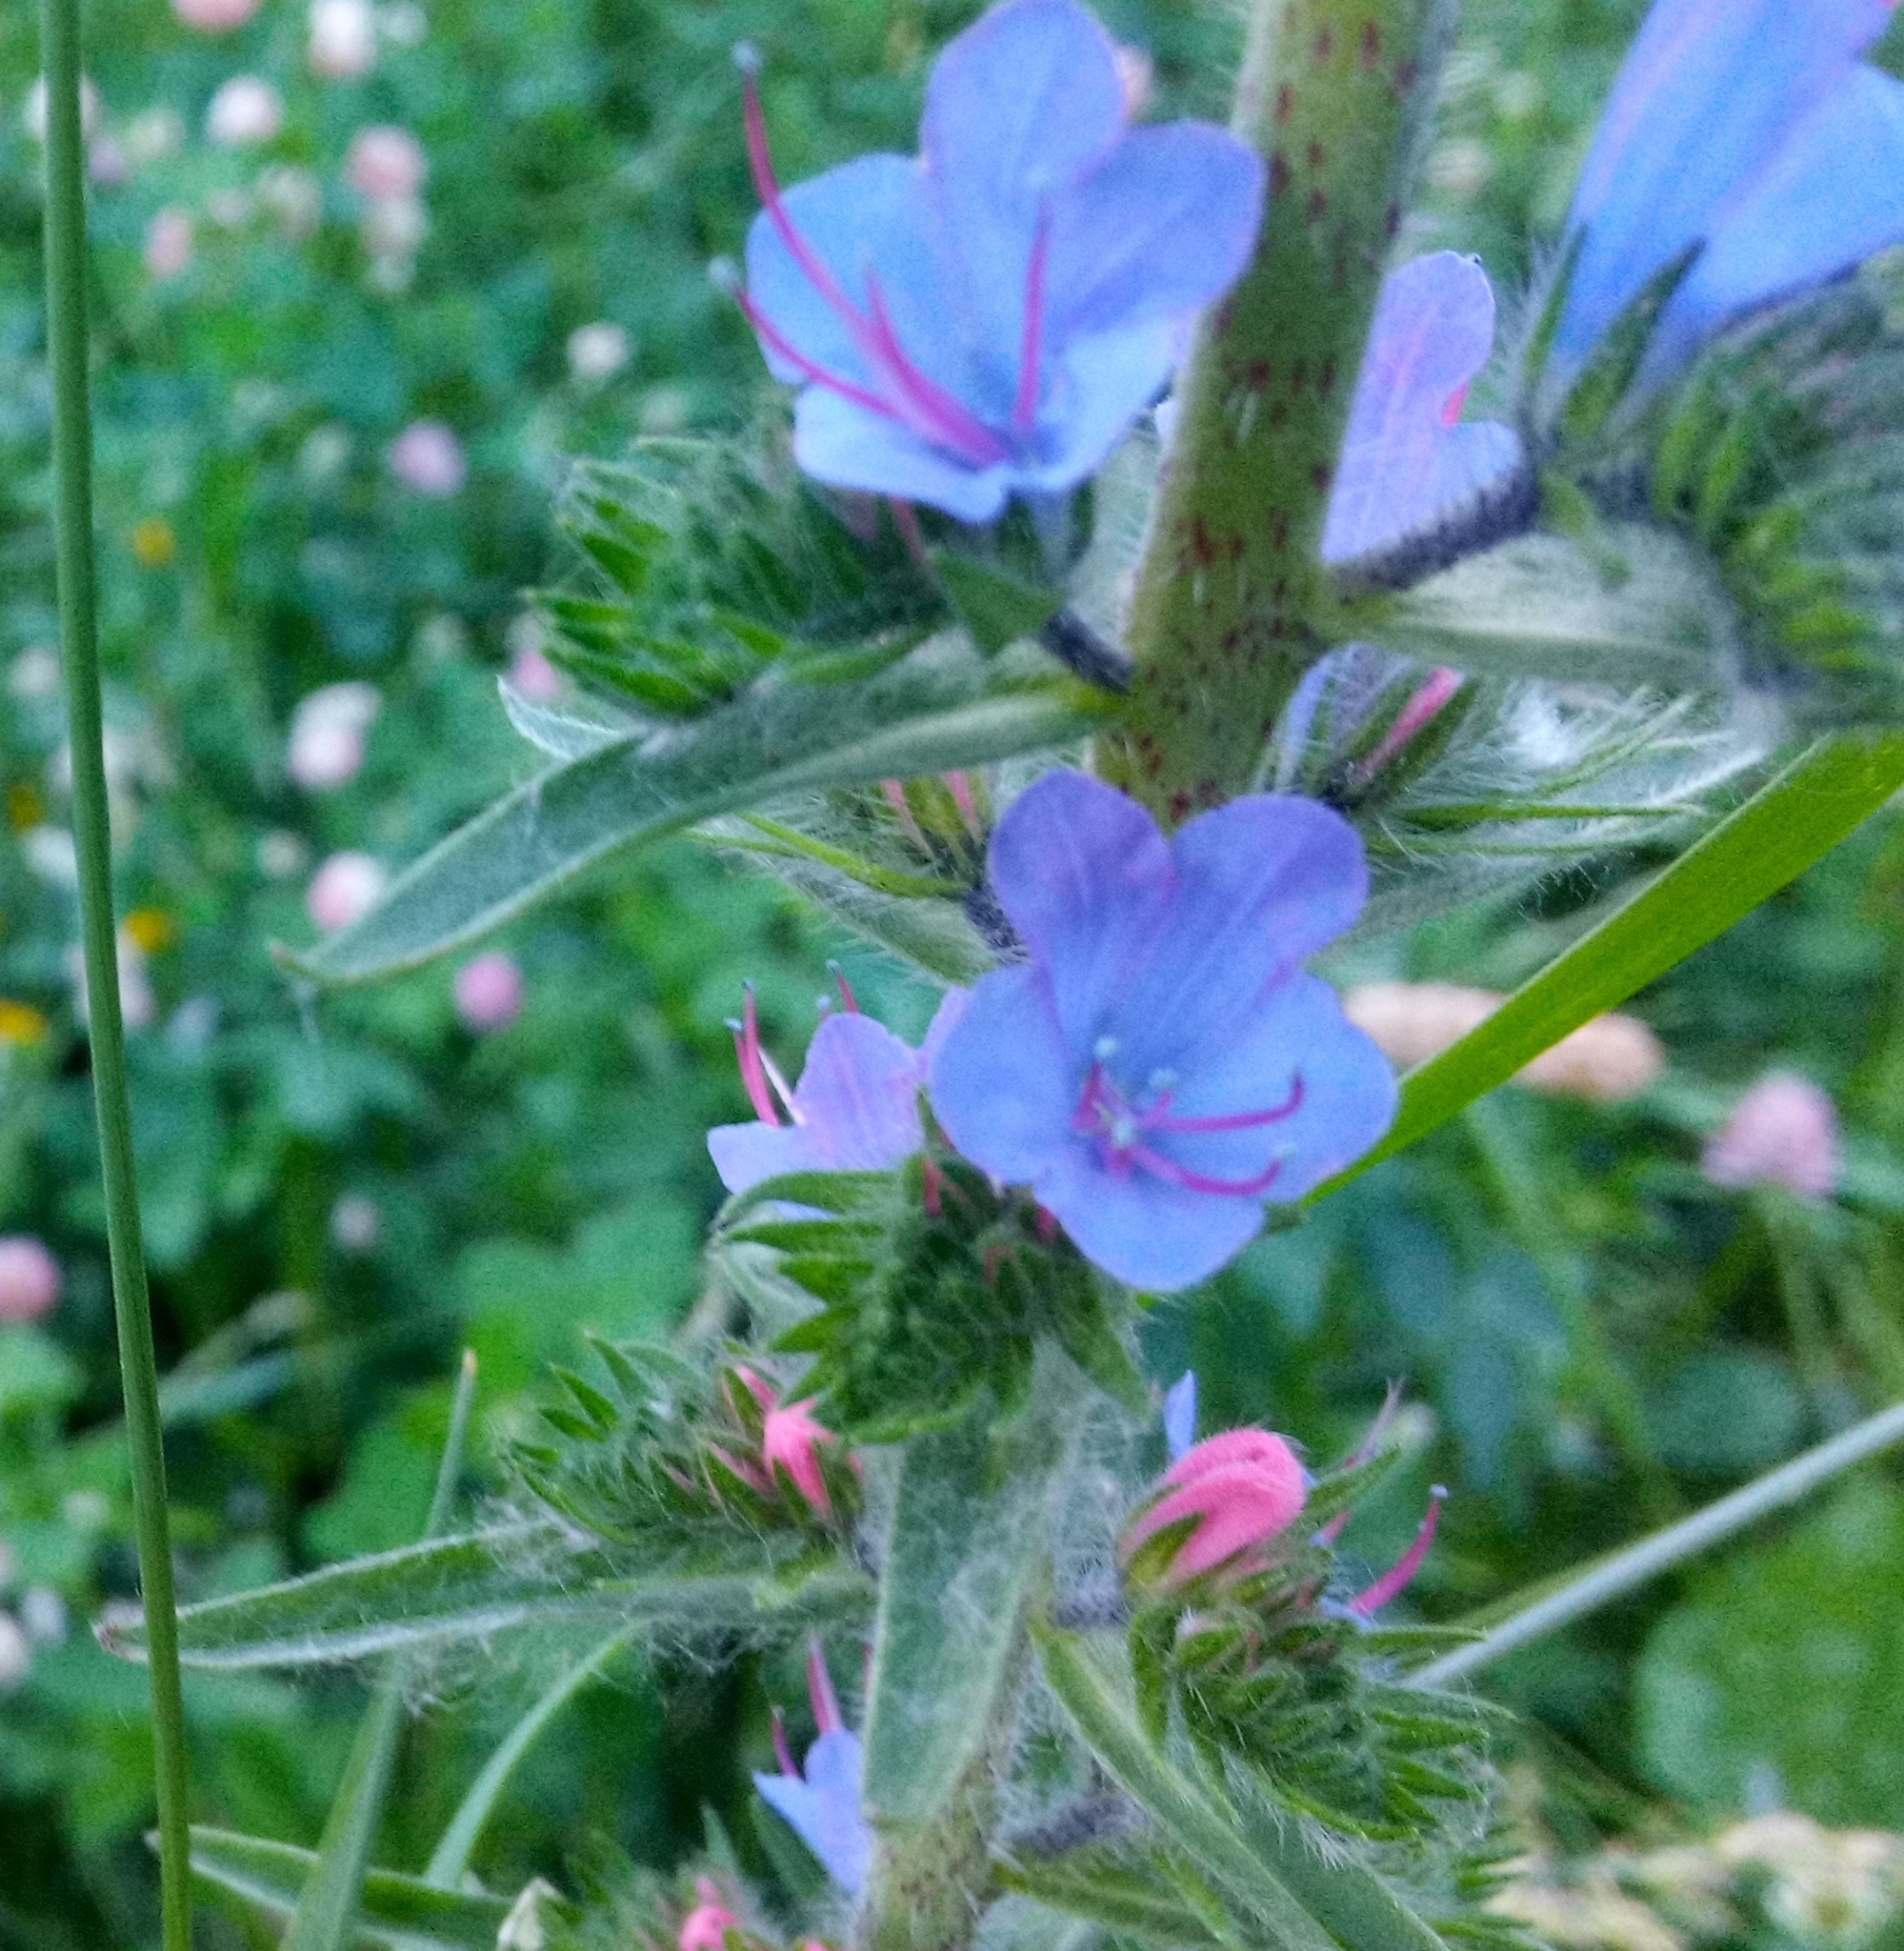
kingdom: Plantae
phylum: Tracheophyta
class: Magnoliopsida
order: Boraginales
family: Boraginaceae
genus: Echium
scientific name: Echium vulgare
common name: Common viper's bugloss
